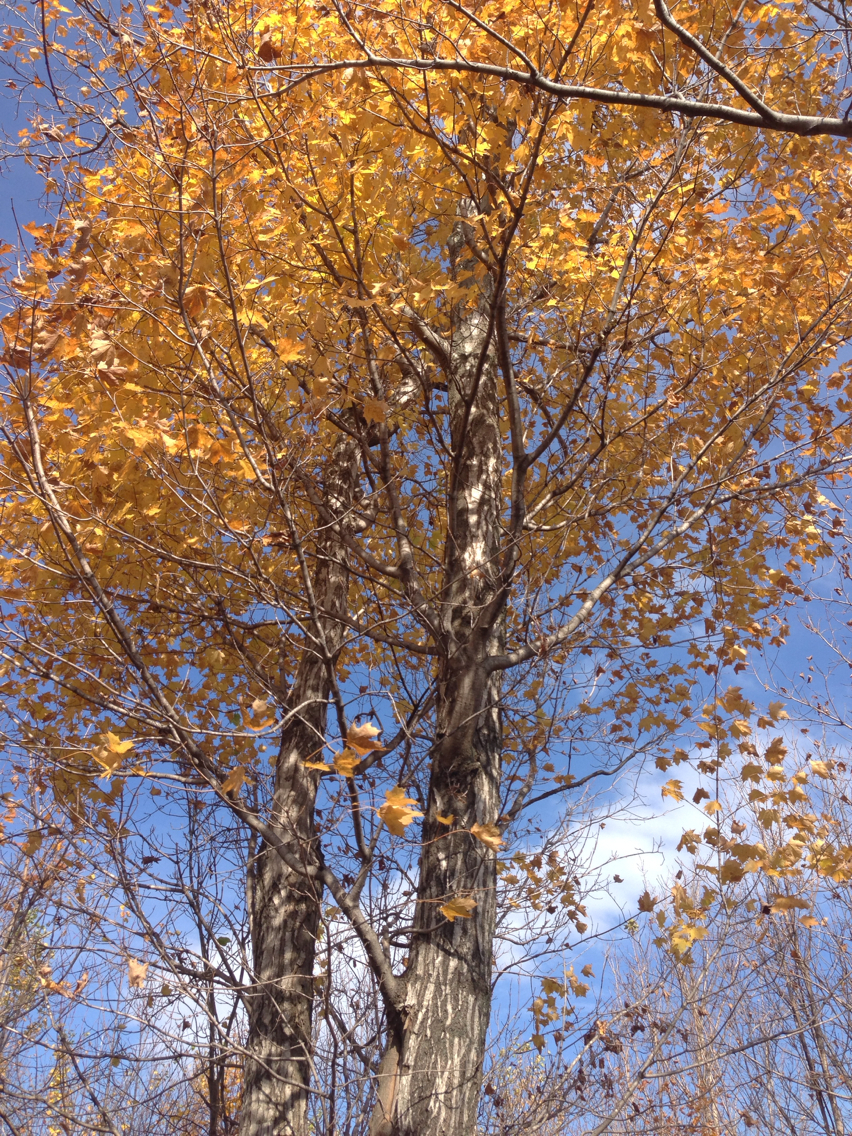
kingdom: Plantae
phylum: Tracheophyta
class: Magnoliopsida
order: Sapindales
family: Sapindaceae
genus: Acer
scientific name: Acer saccharum
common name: Sugar maple
